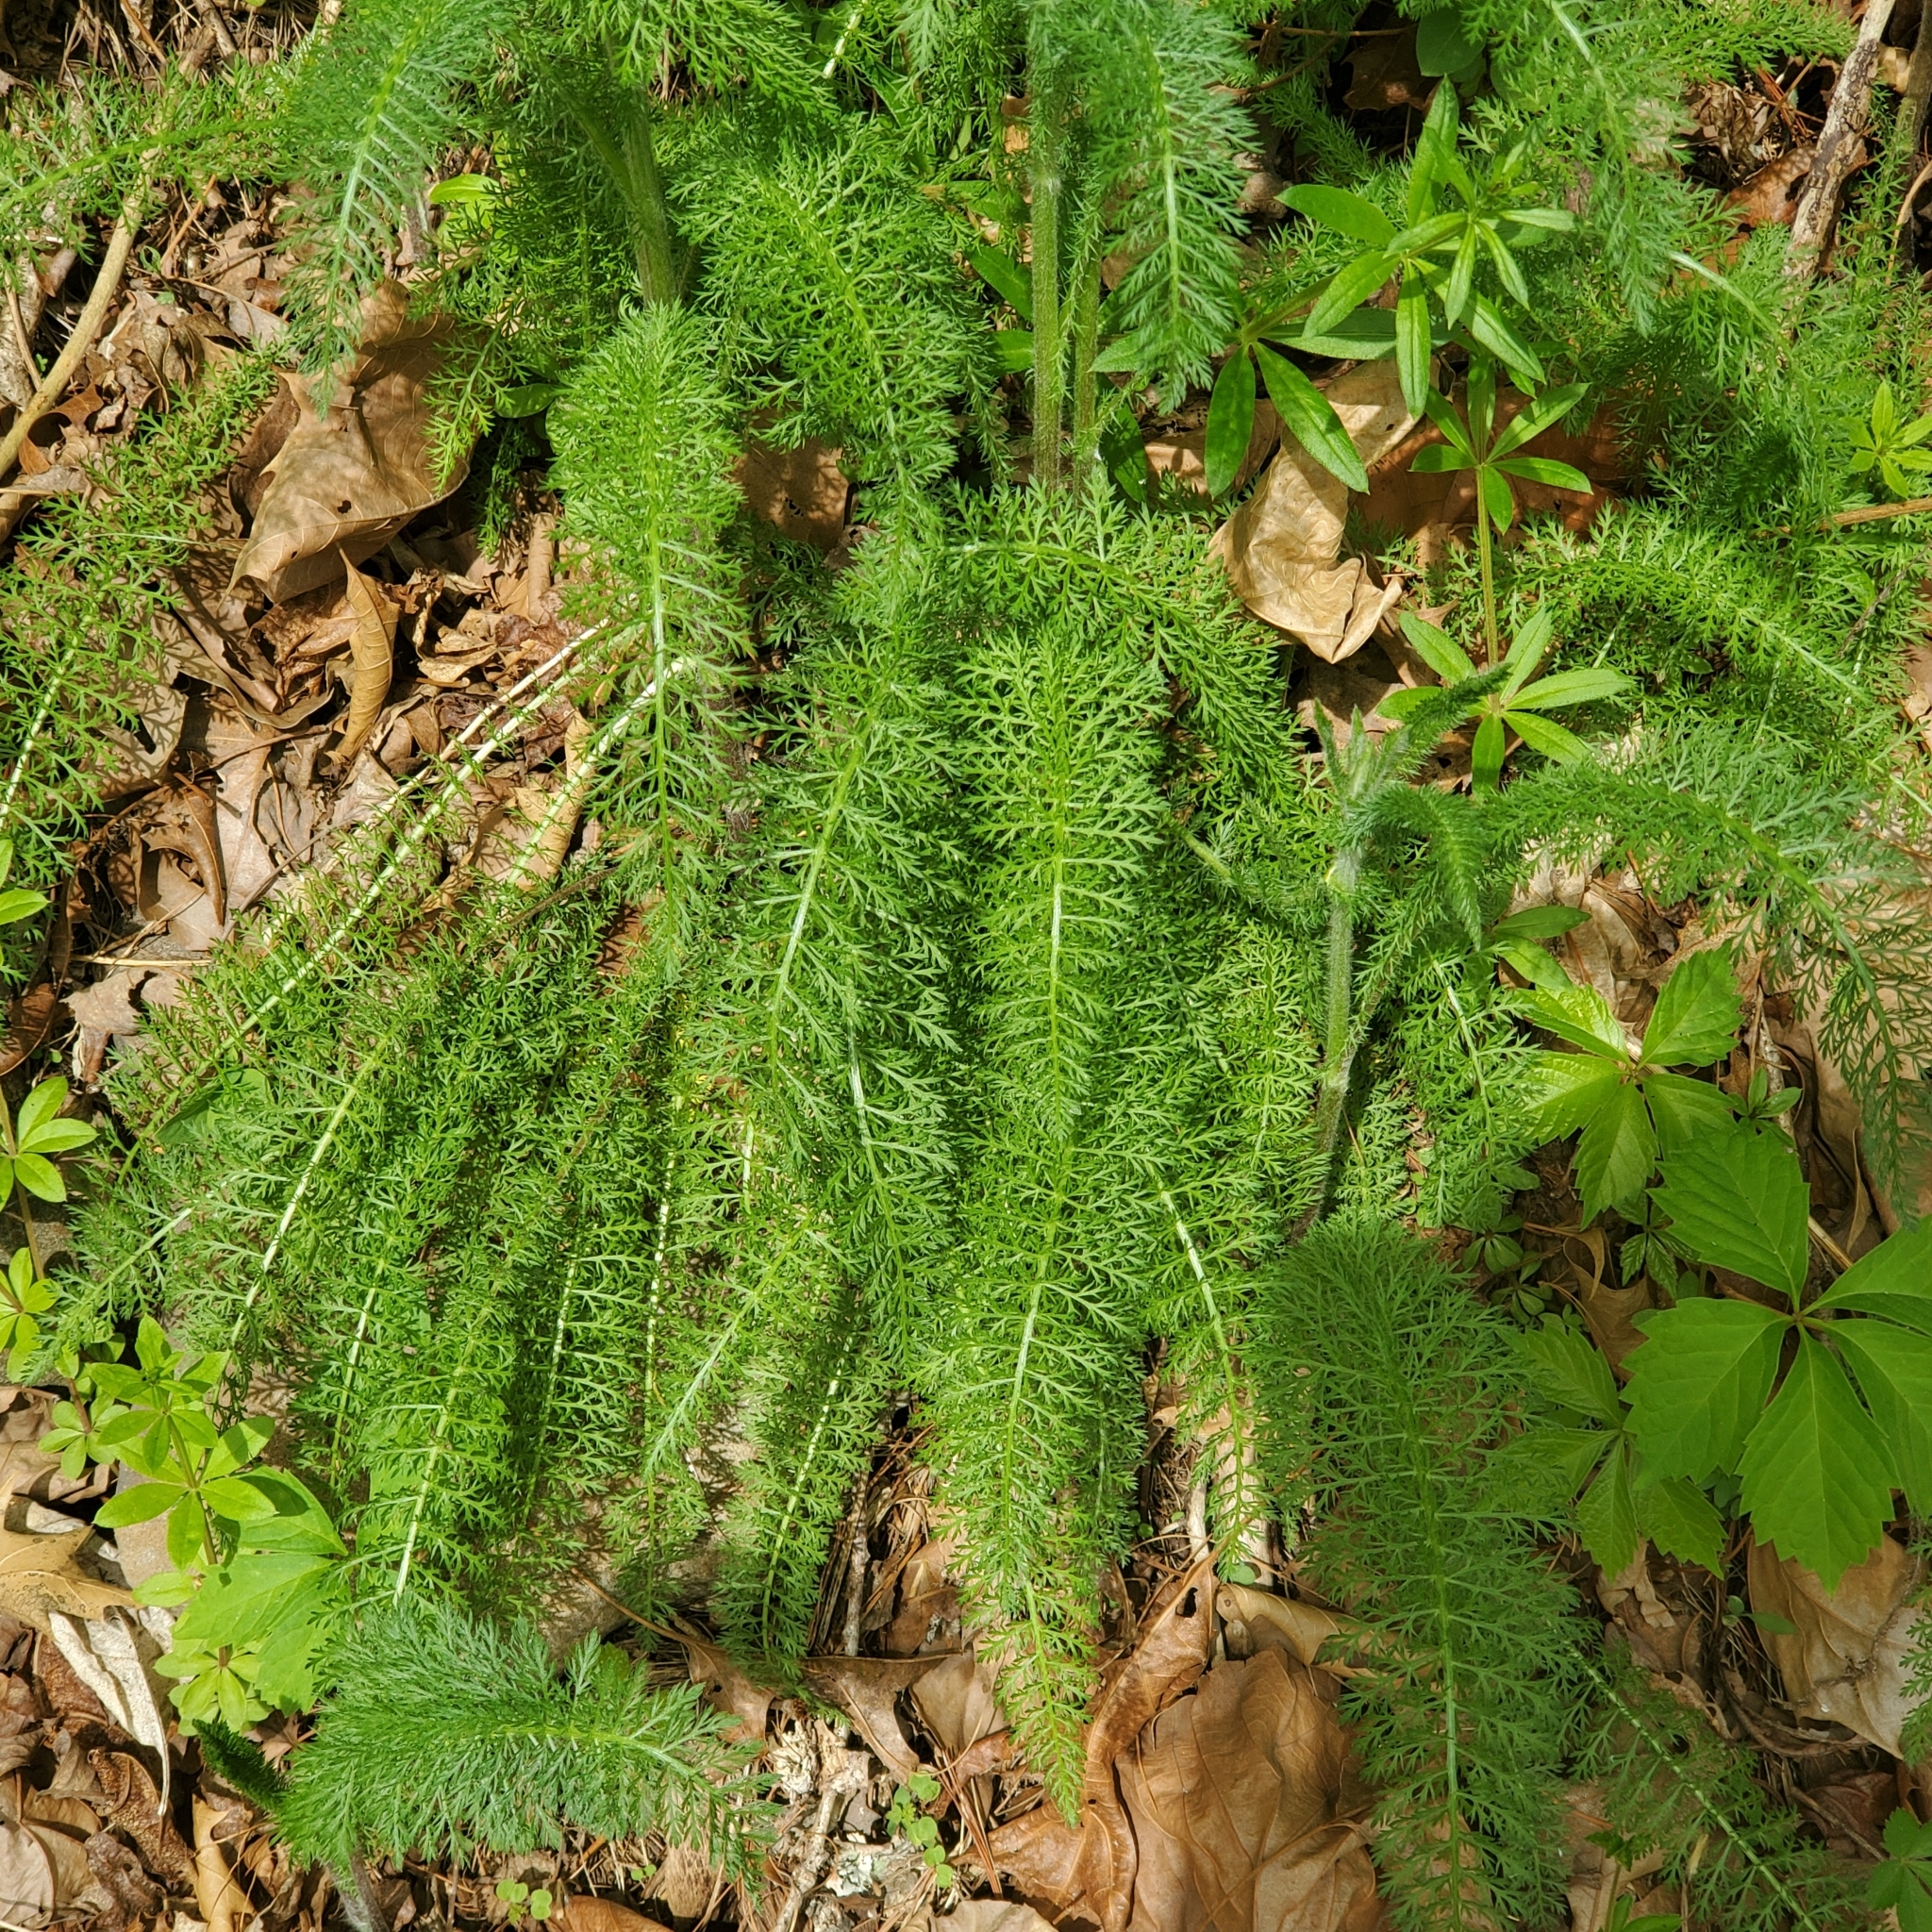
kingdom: Plantae
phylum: Tracheophyta
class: Magnoliopsida
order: Asterales
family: Asteraceae
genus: Achillea
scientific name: Achillea millefolium
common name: Yarrow
